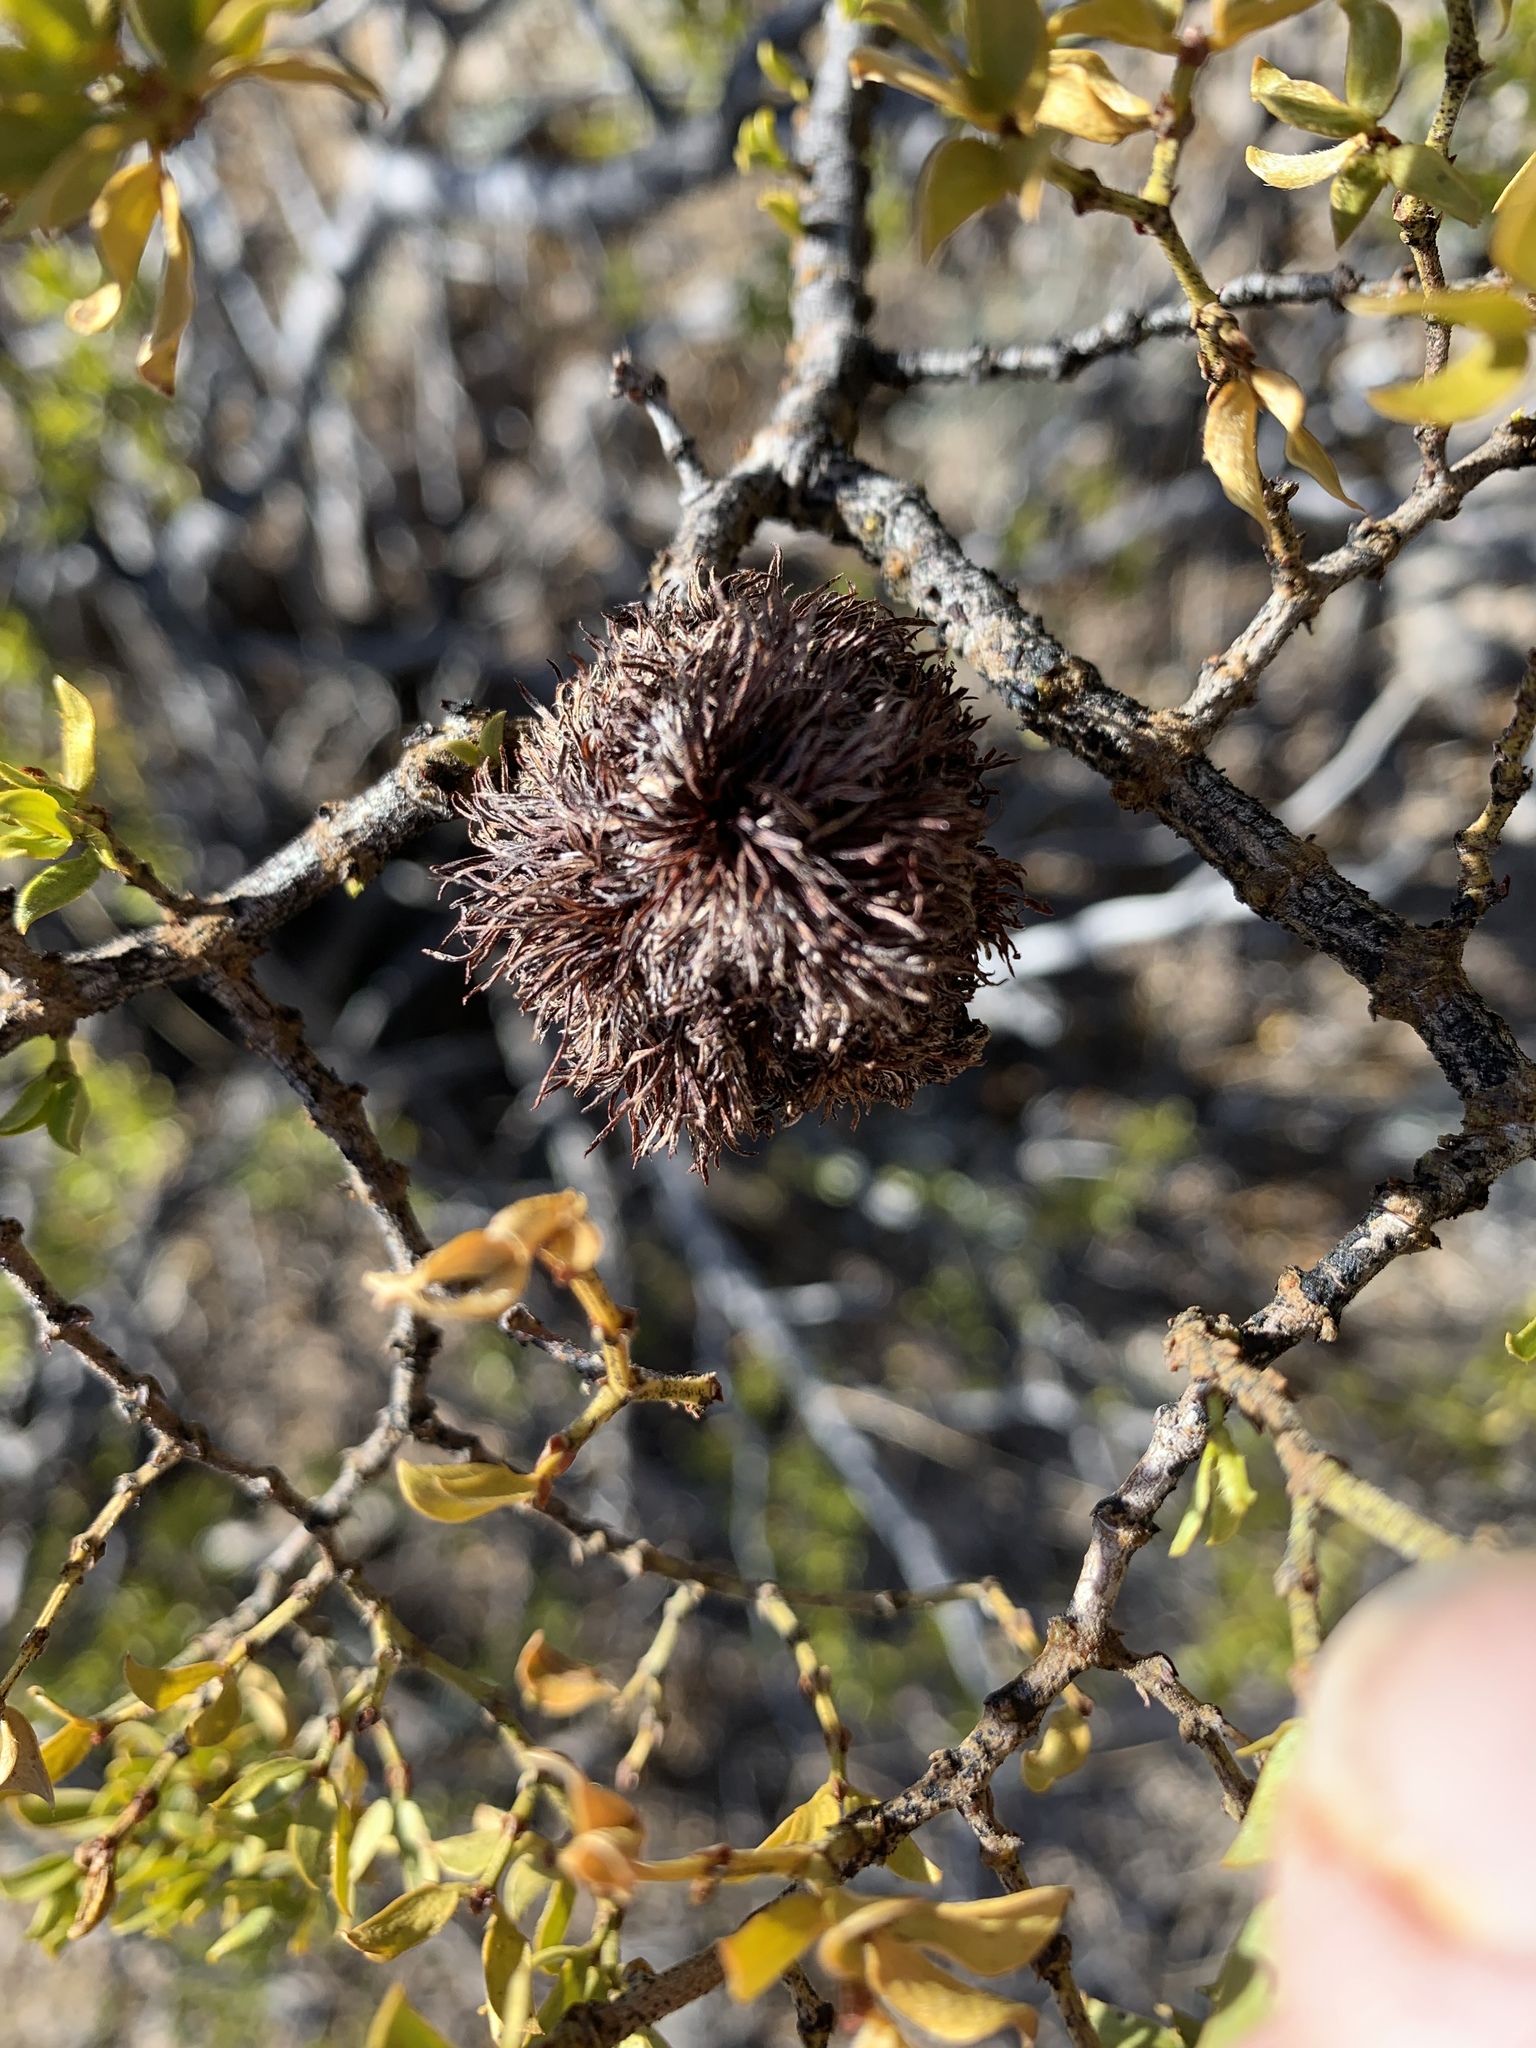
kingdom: Animalia
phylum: Arthropoda
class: Insecta
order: Diptera
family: Cecidomyiidae
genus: Asphondylia
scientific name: Asphondylia auripila
